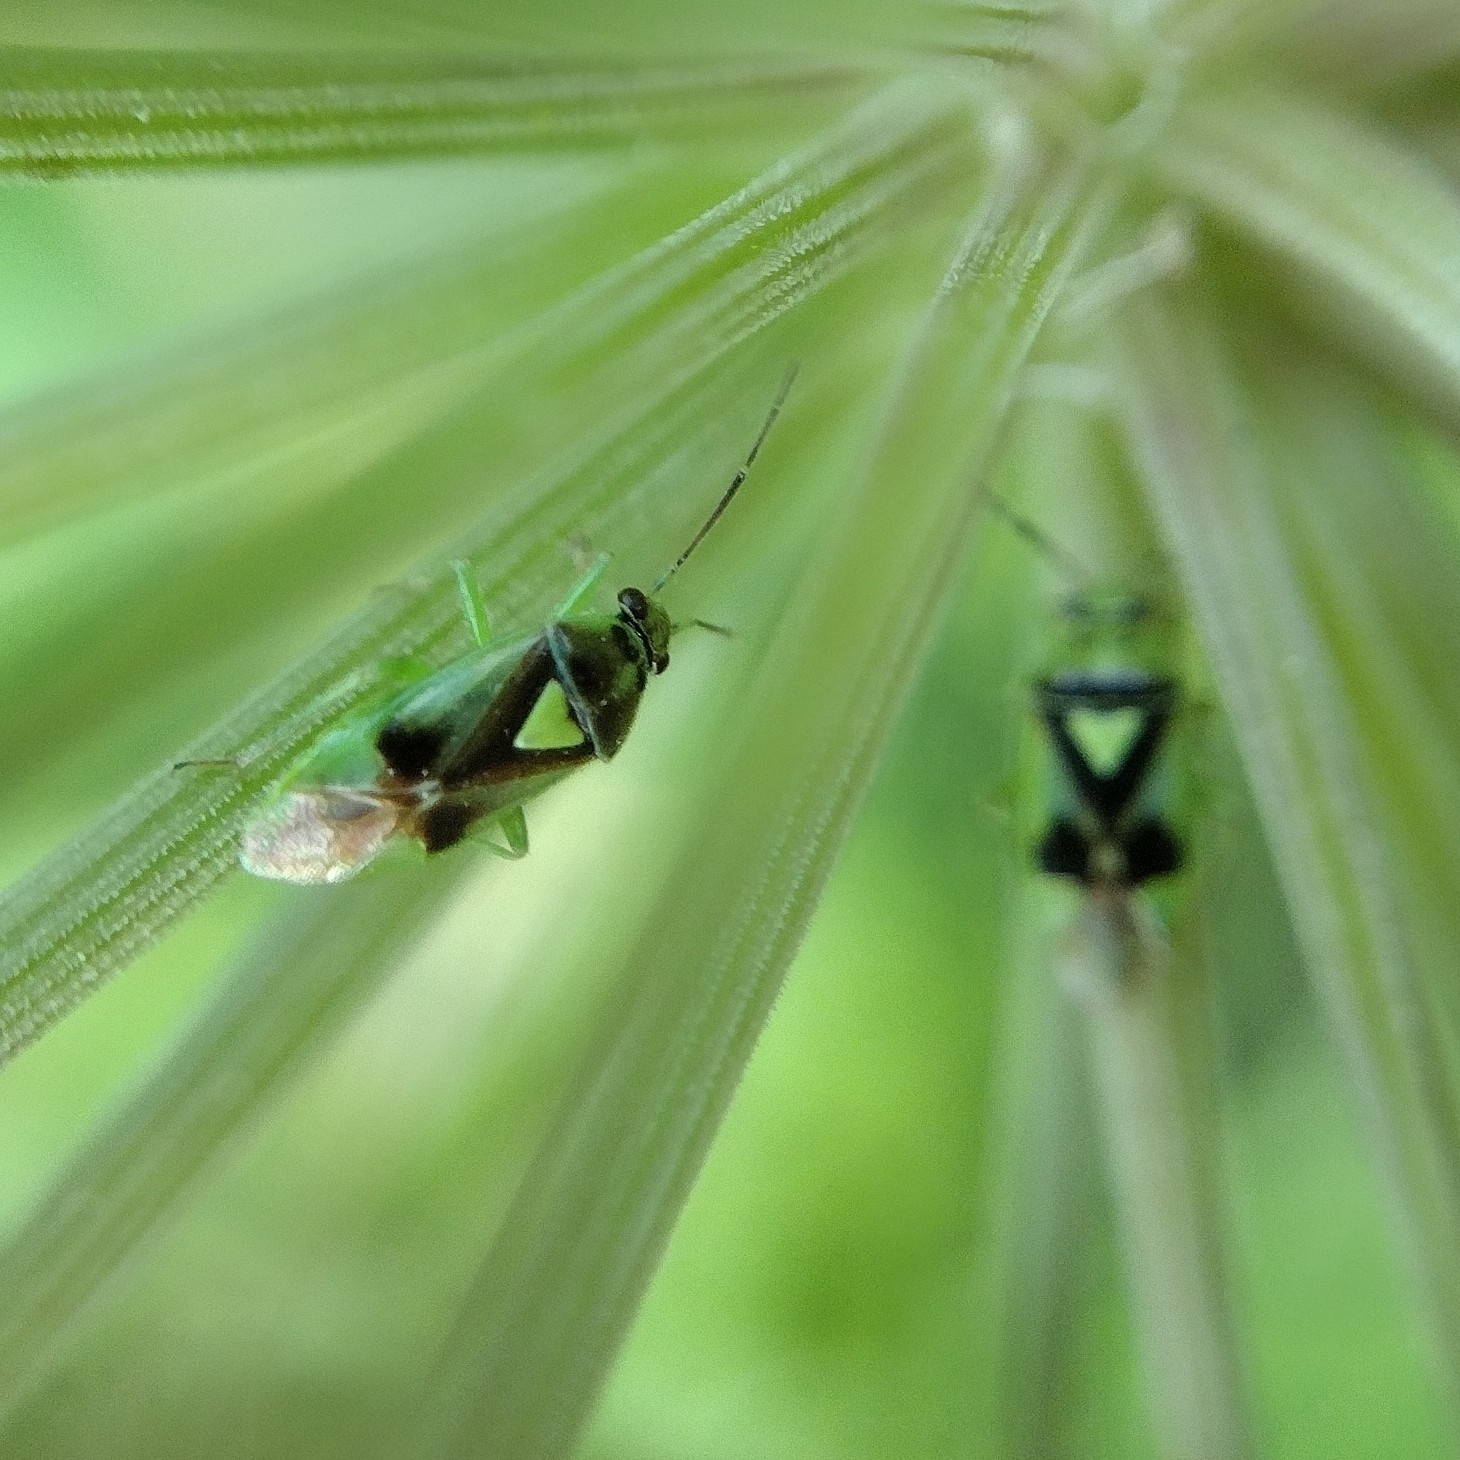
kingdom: Animalia
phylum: Arthropoda
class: Insecta
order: Hemiptera
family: Miridae
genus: Orthops
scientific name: Orthops campestris
